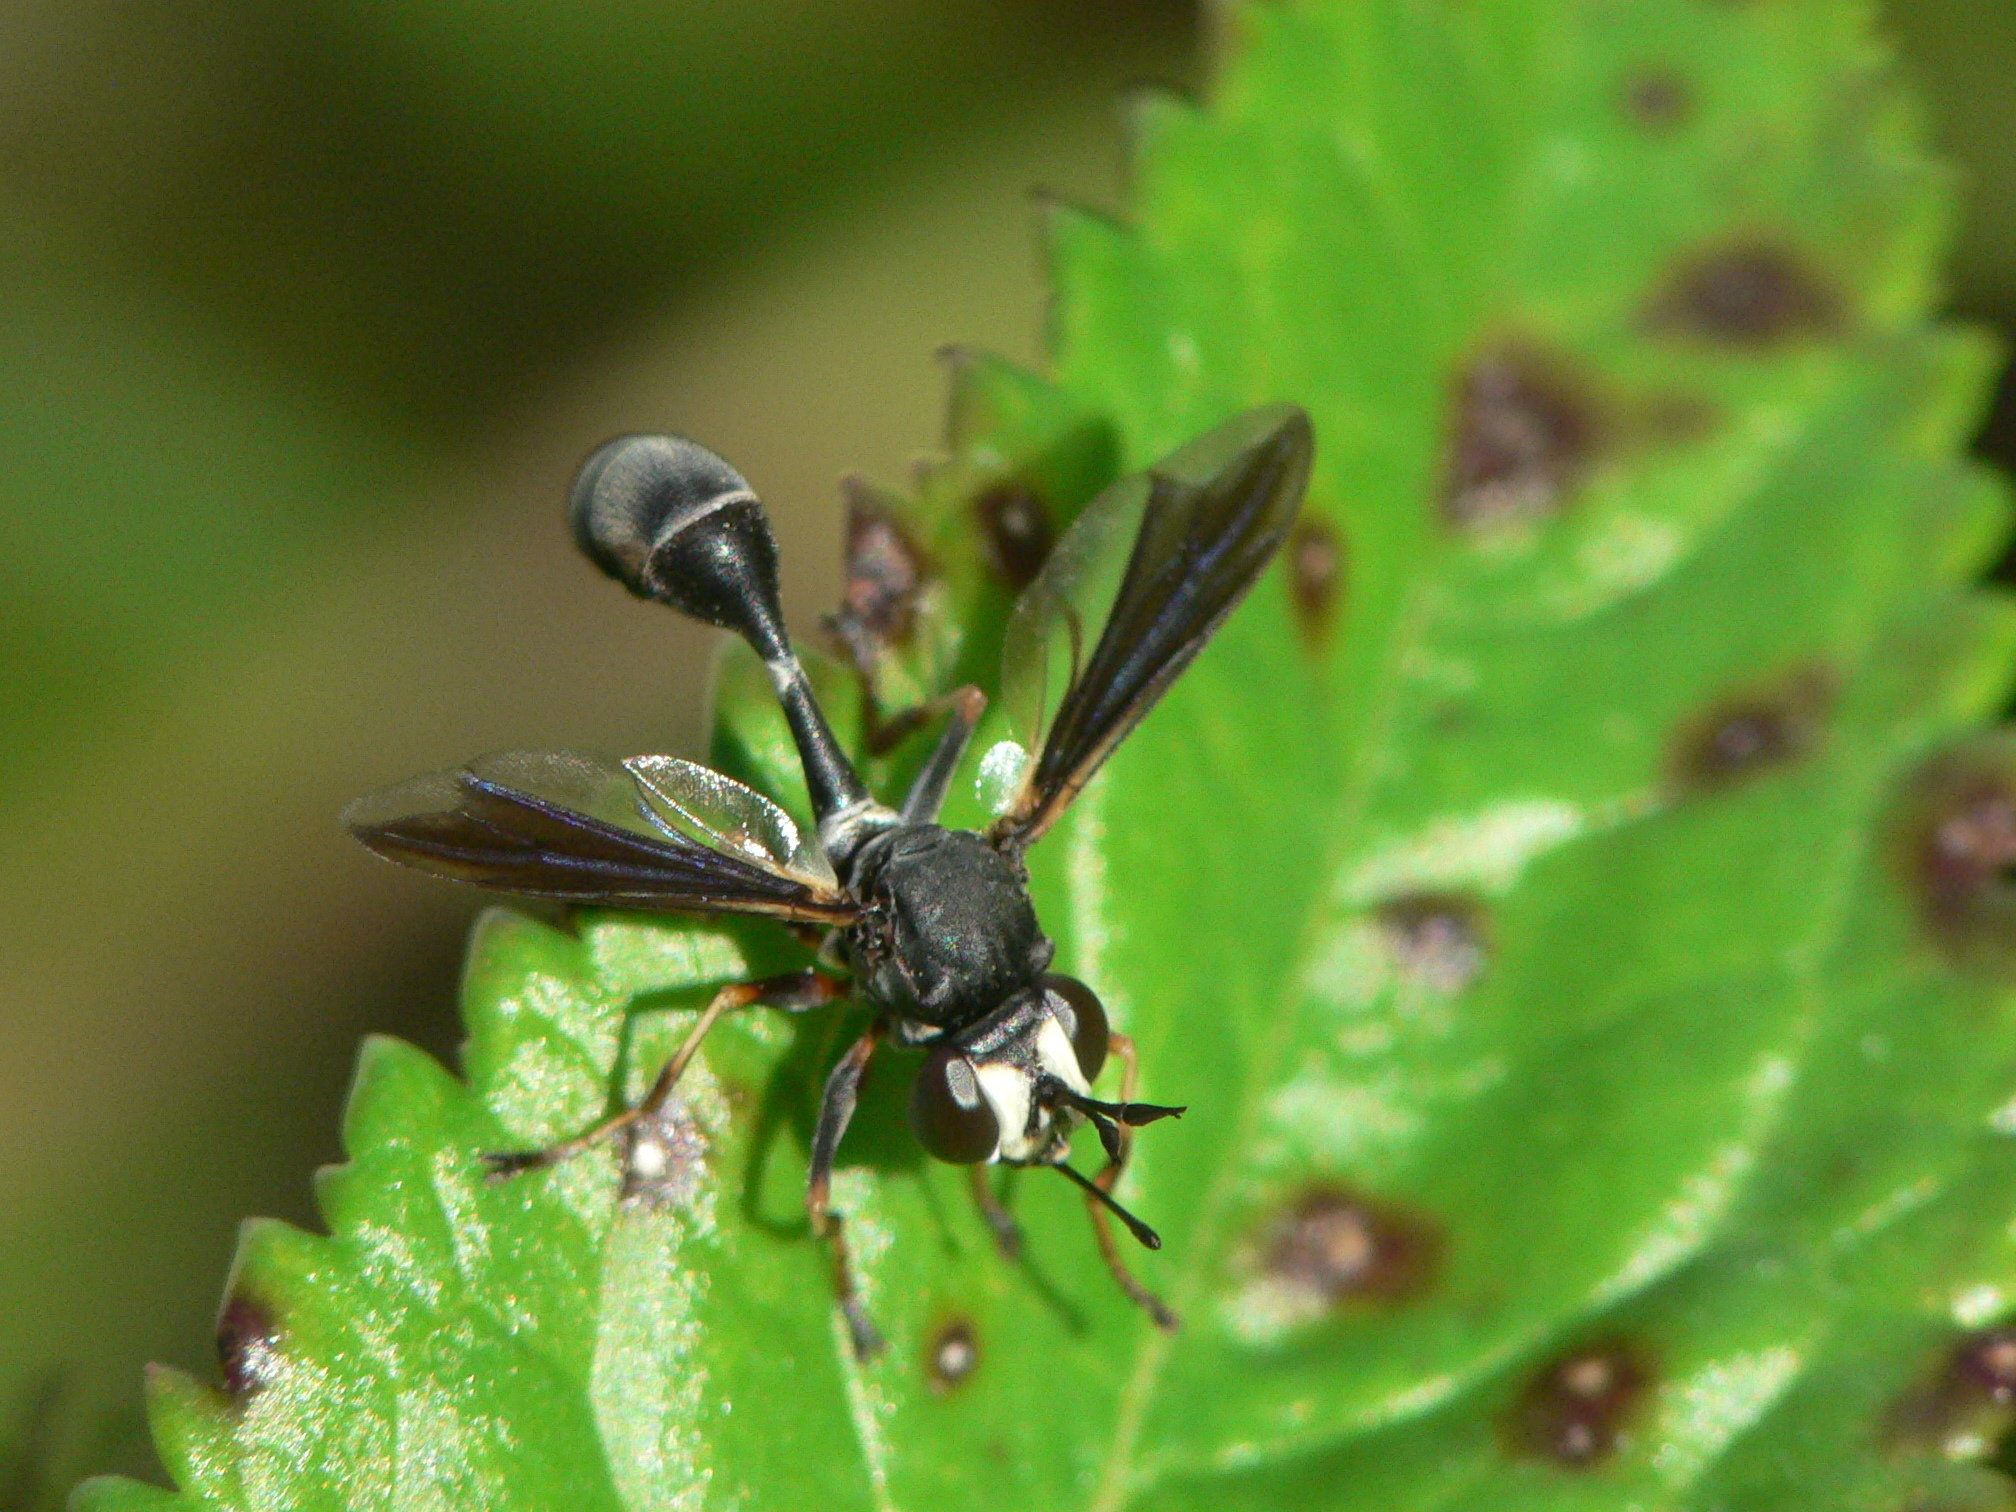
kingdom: Animalia
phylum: Arthropoda
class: Insecta
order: Diptera
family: Conopidae
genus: Physocephala
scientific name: Physocephala tibialis
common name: Common eastern physocephala
